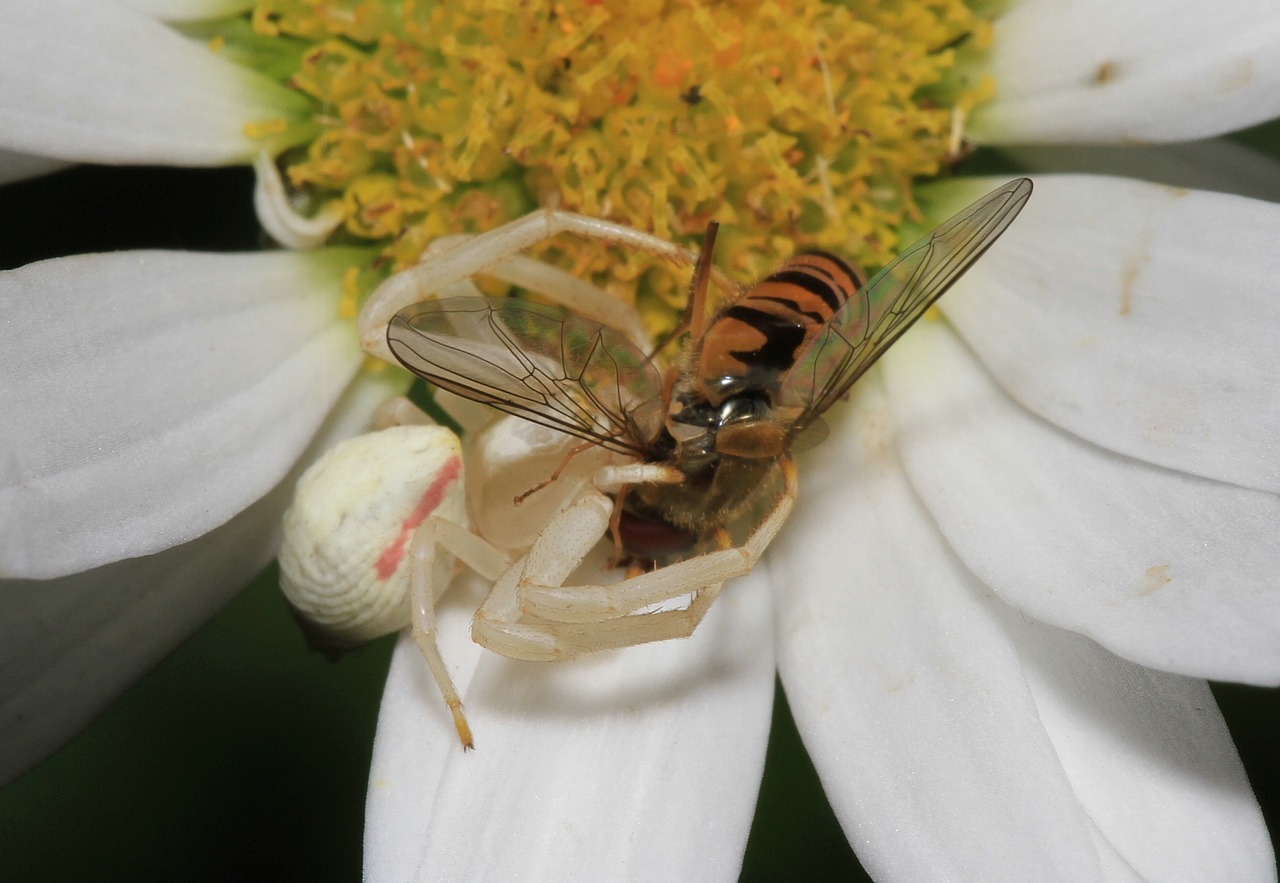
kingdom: Animalia
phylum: Arthropoda
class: Arachnida
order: Araneae
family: Thomisidae
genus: Misumena
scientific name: Misumena vatia
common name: Goldenrod crab spider
